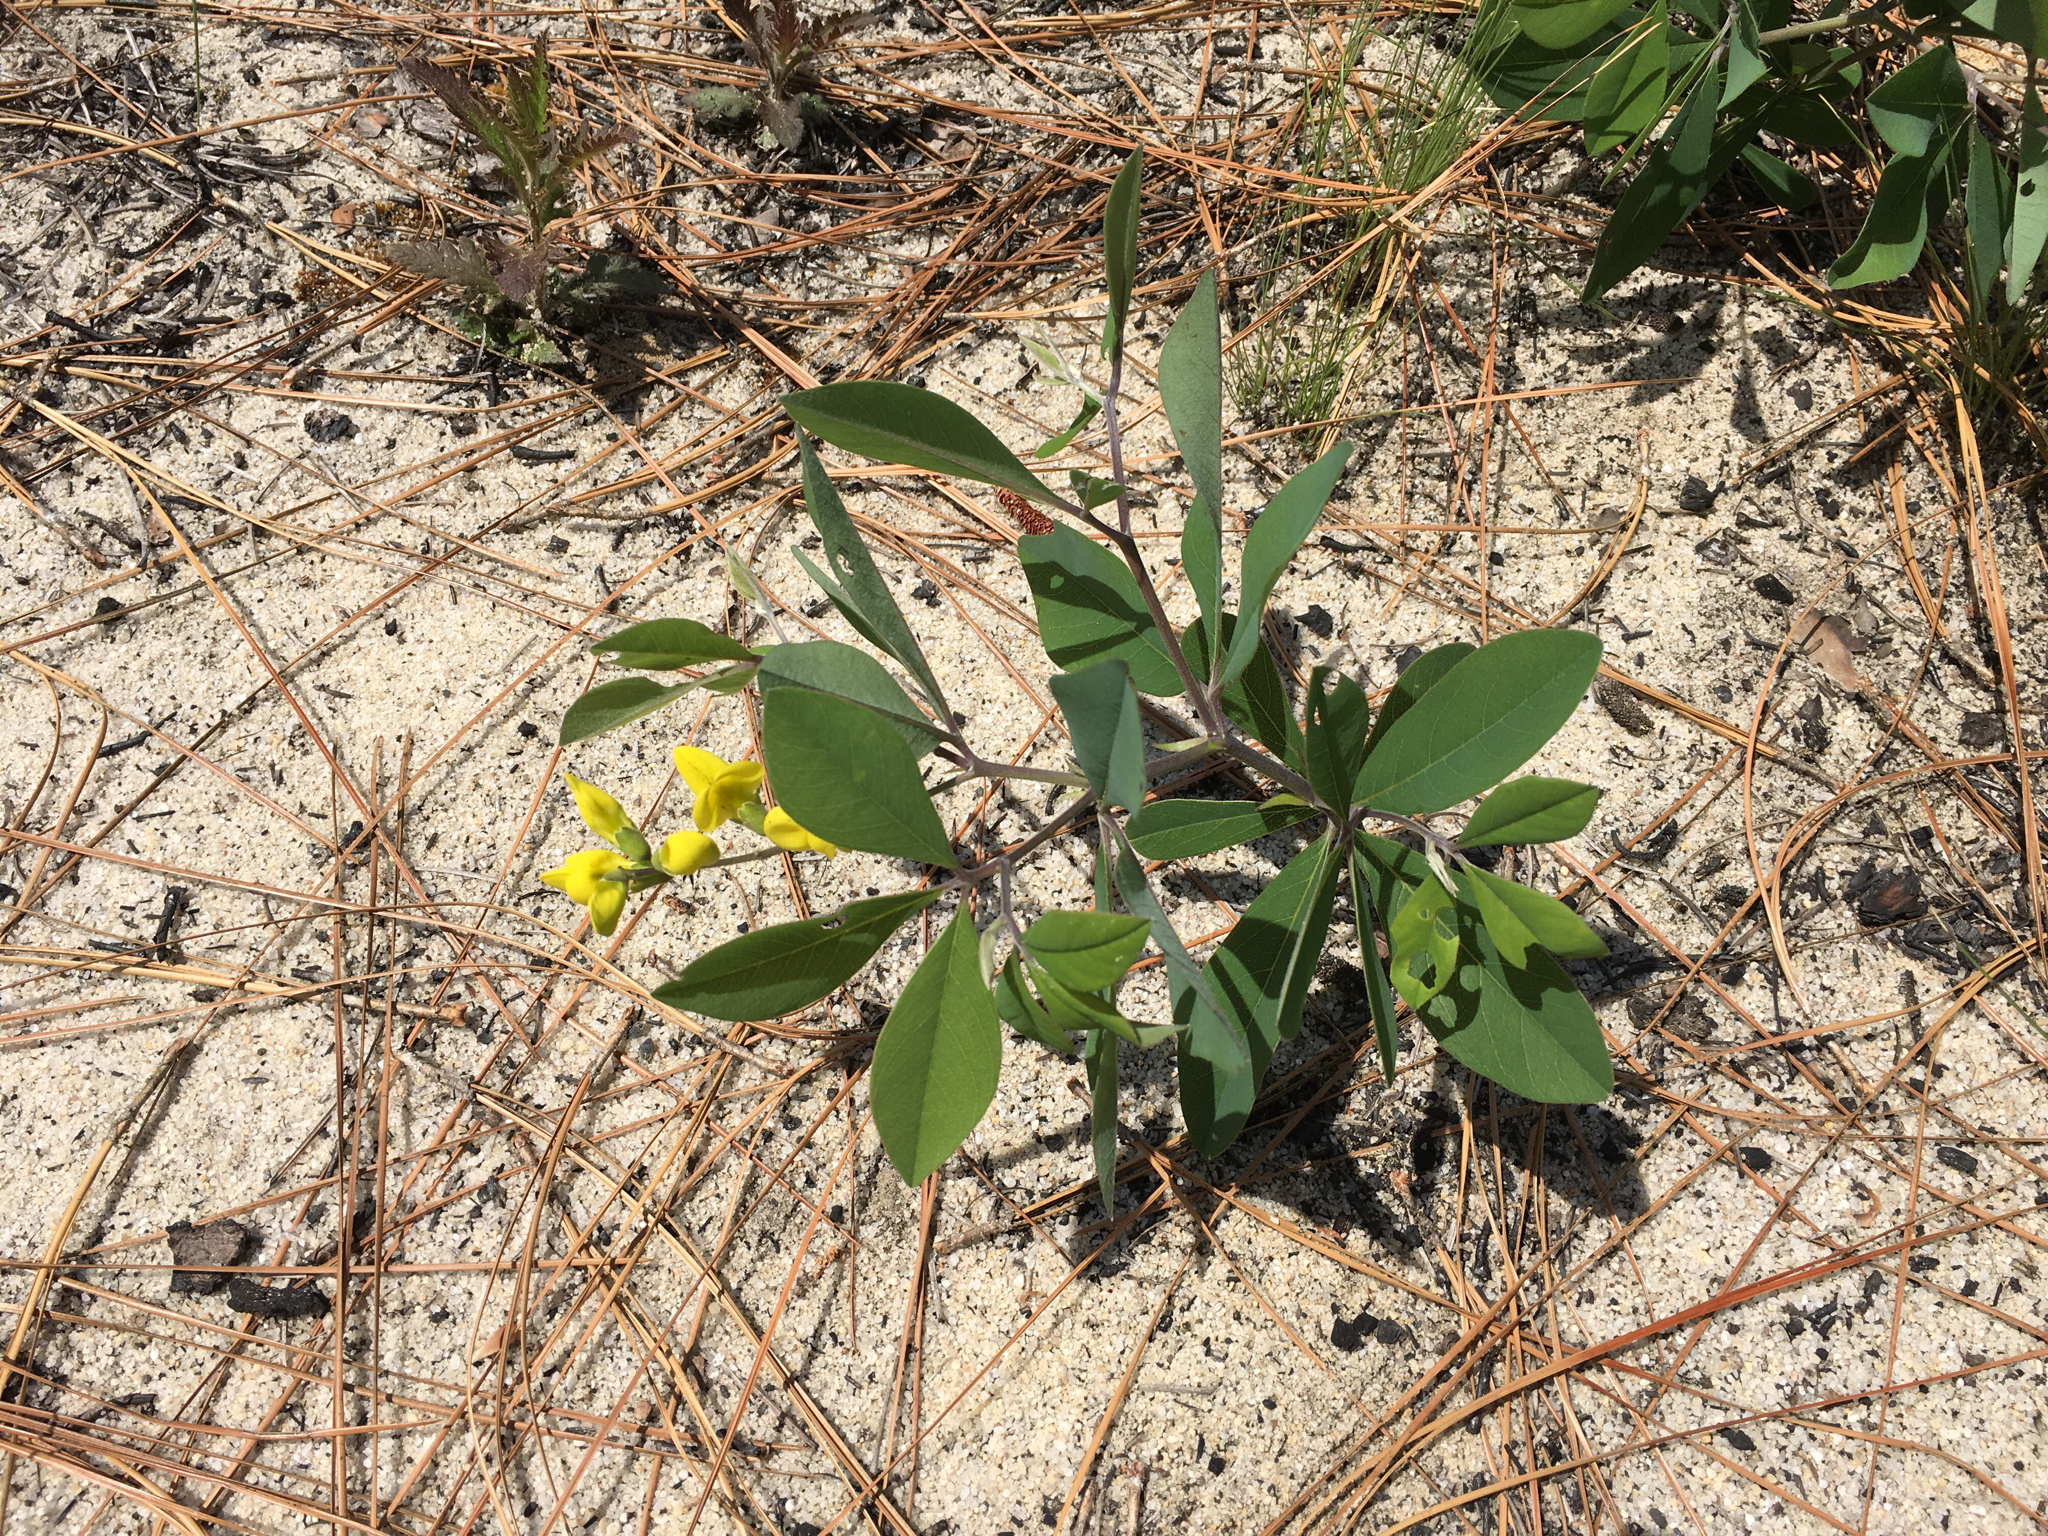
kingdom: Plantae
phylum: Tracheophyta
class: Magnoliopsida
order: Fabales
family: Fabaceae
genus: Baptisia
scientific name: Baptisia cinerea
